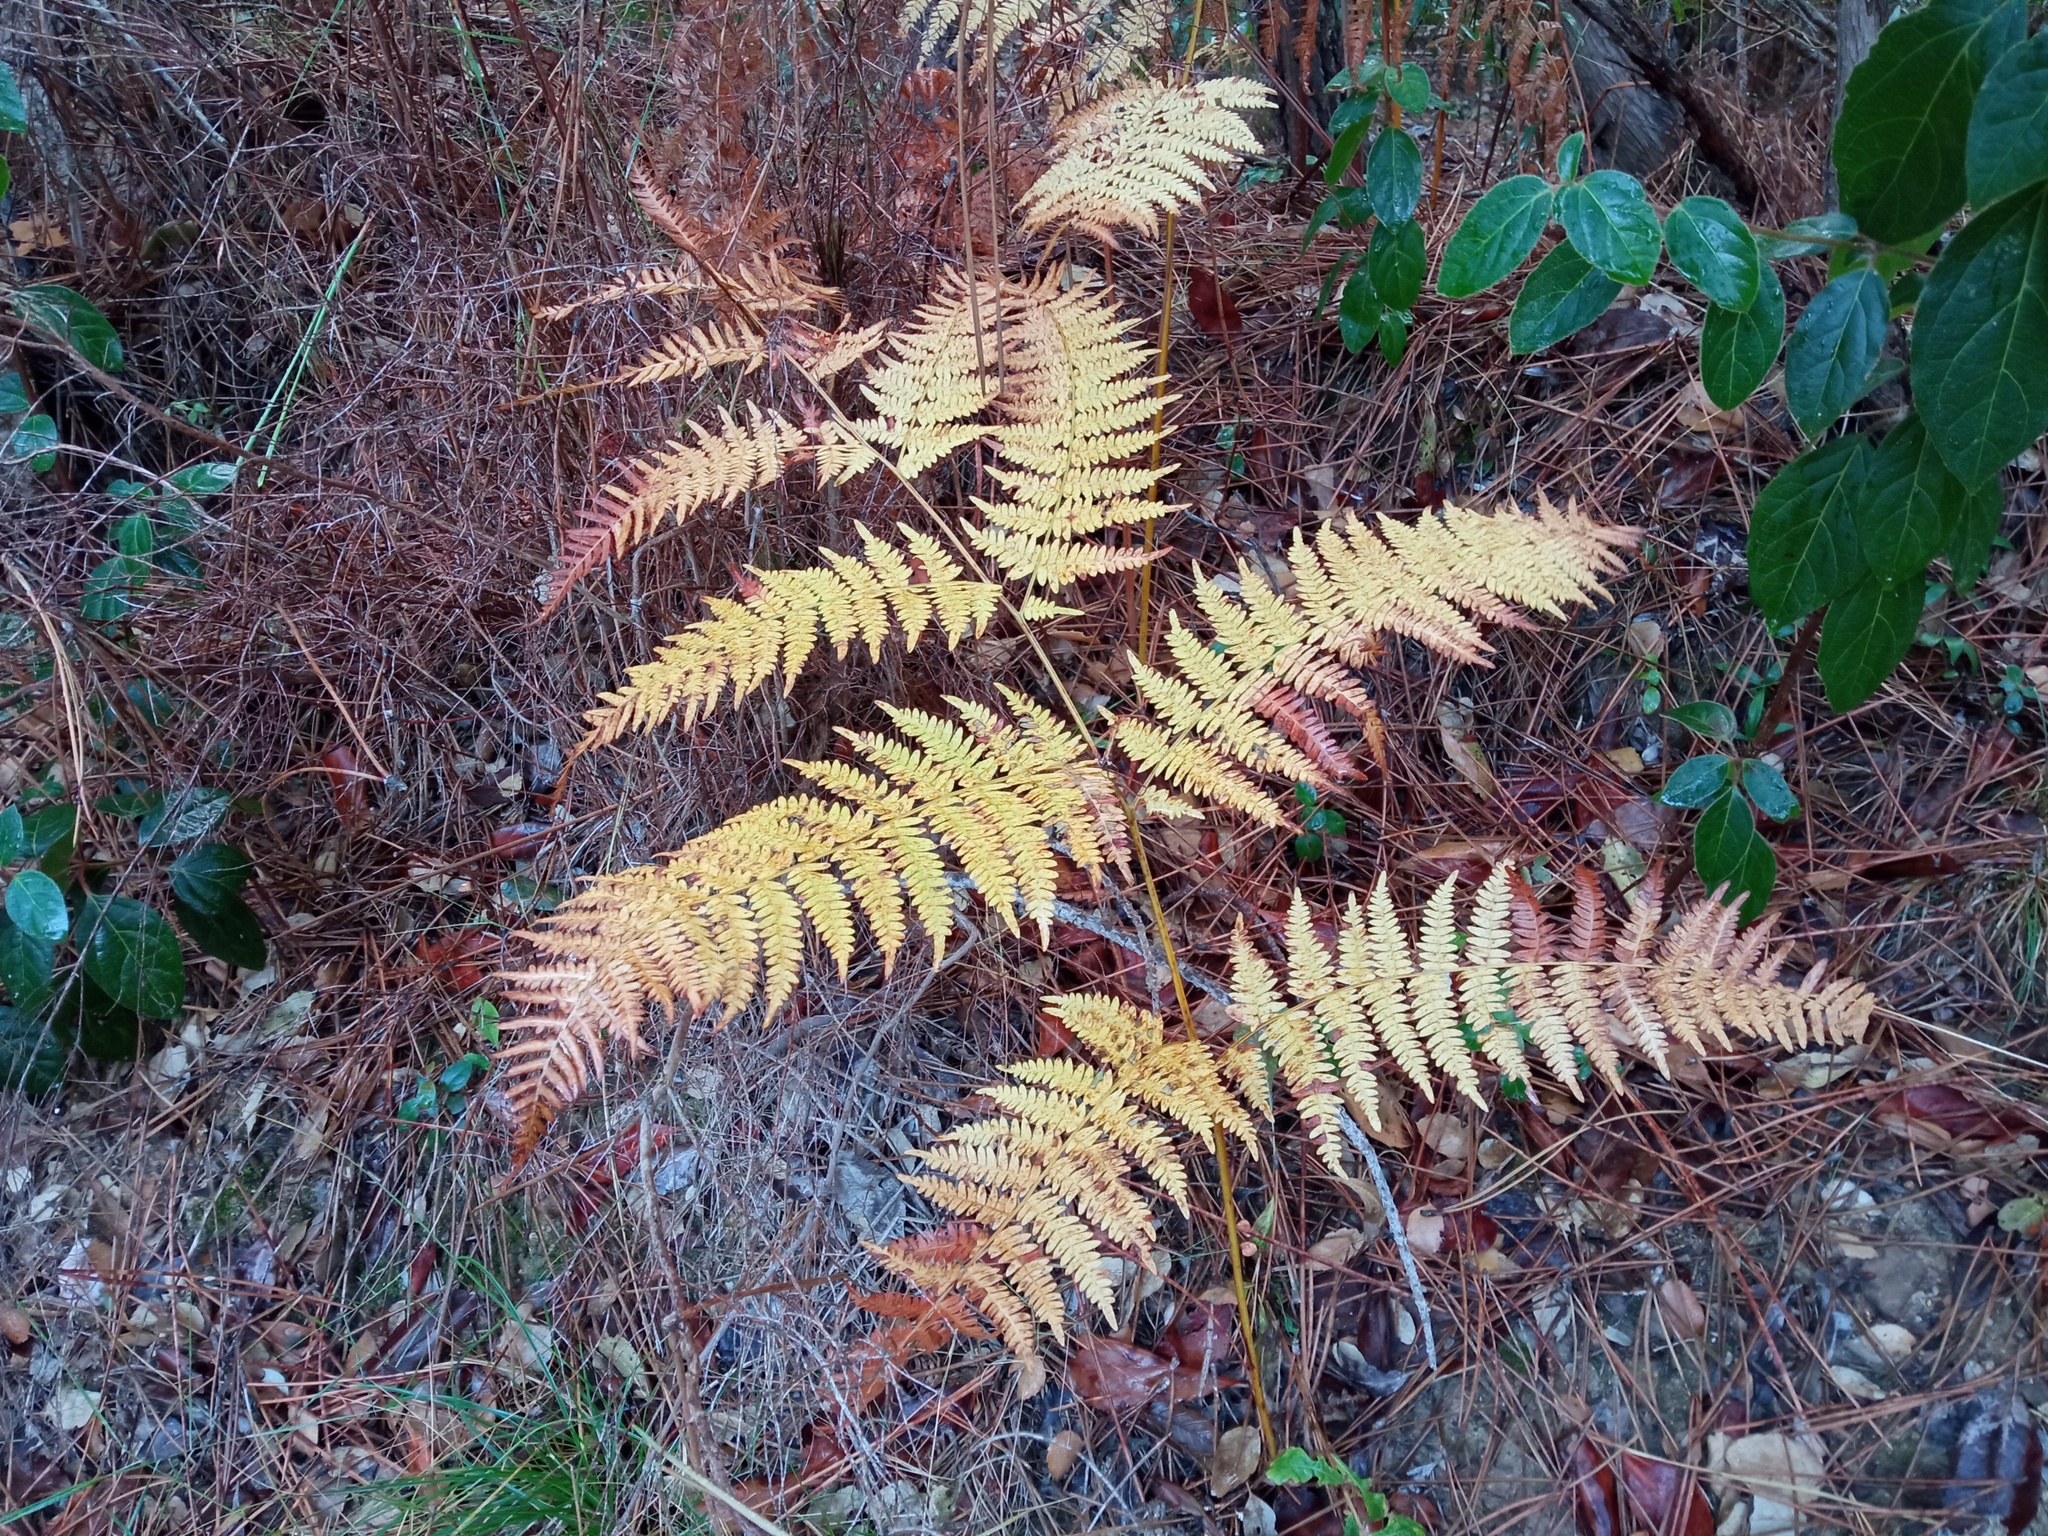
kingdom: Plantae
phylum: Tracheophyta
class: Polypodiopsida
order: Polypodiales
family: Dennstaedtiaceae
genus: Pteridium
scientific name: Pteridium aquilinum
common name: Bracken
